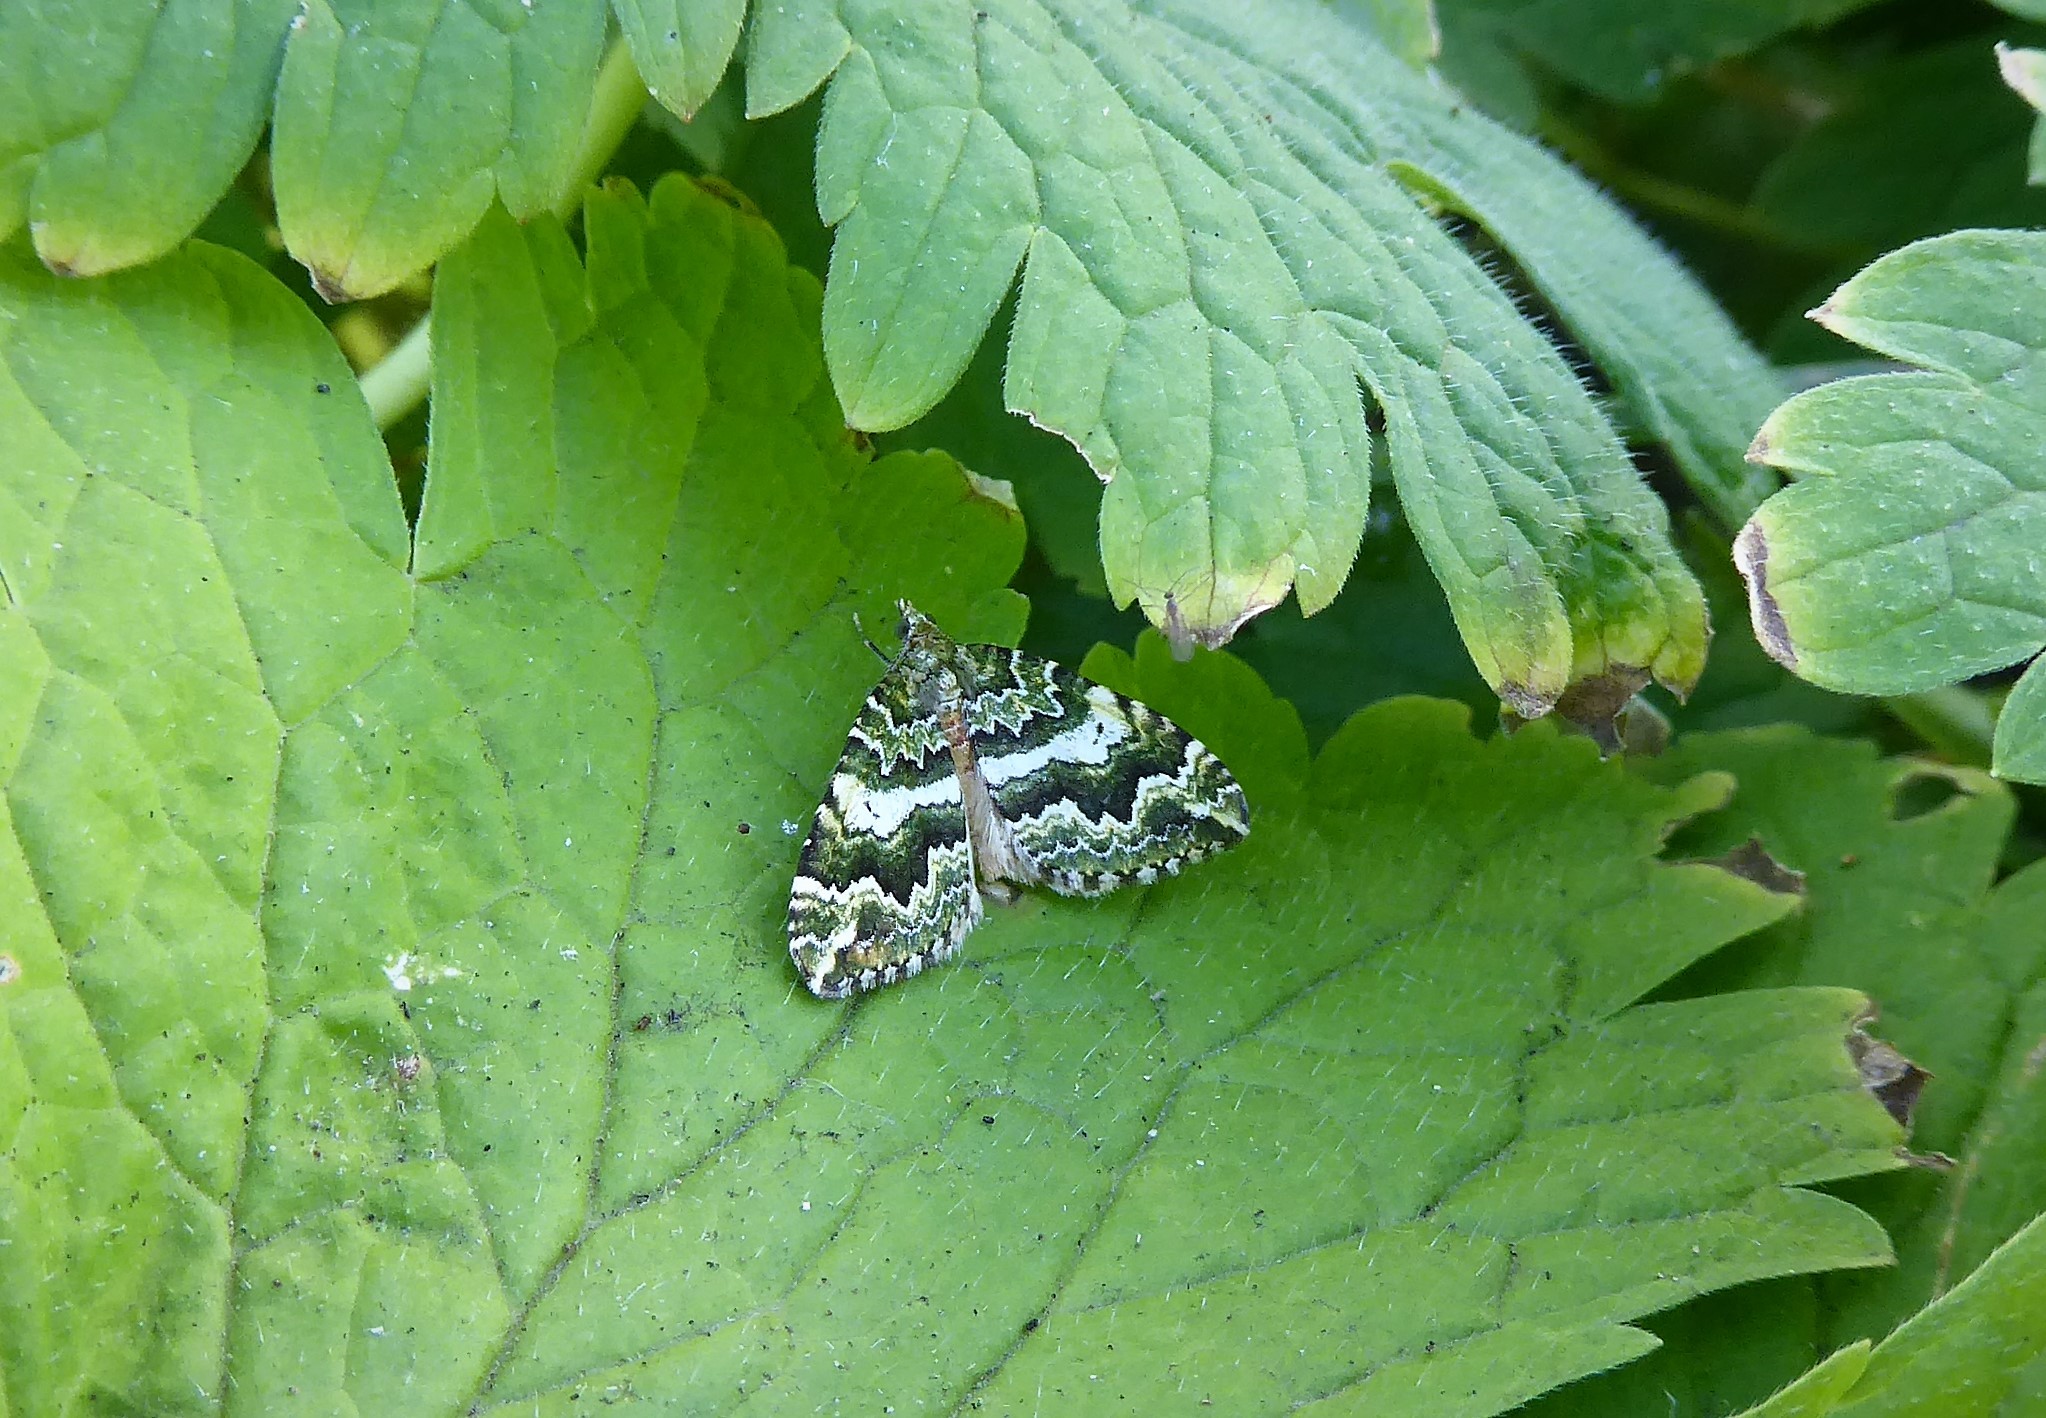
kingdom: Animalia
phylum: Arthropoda
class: Insecta
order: Lepidoptera
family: Geometridae
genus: Asaphodes
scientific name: Asaphodes beata
